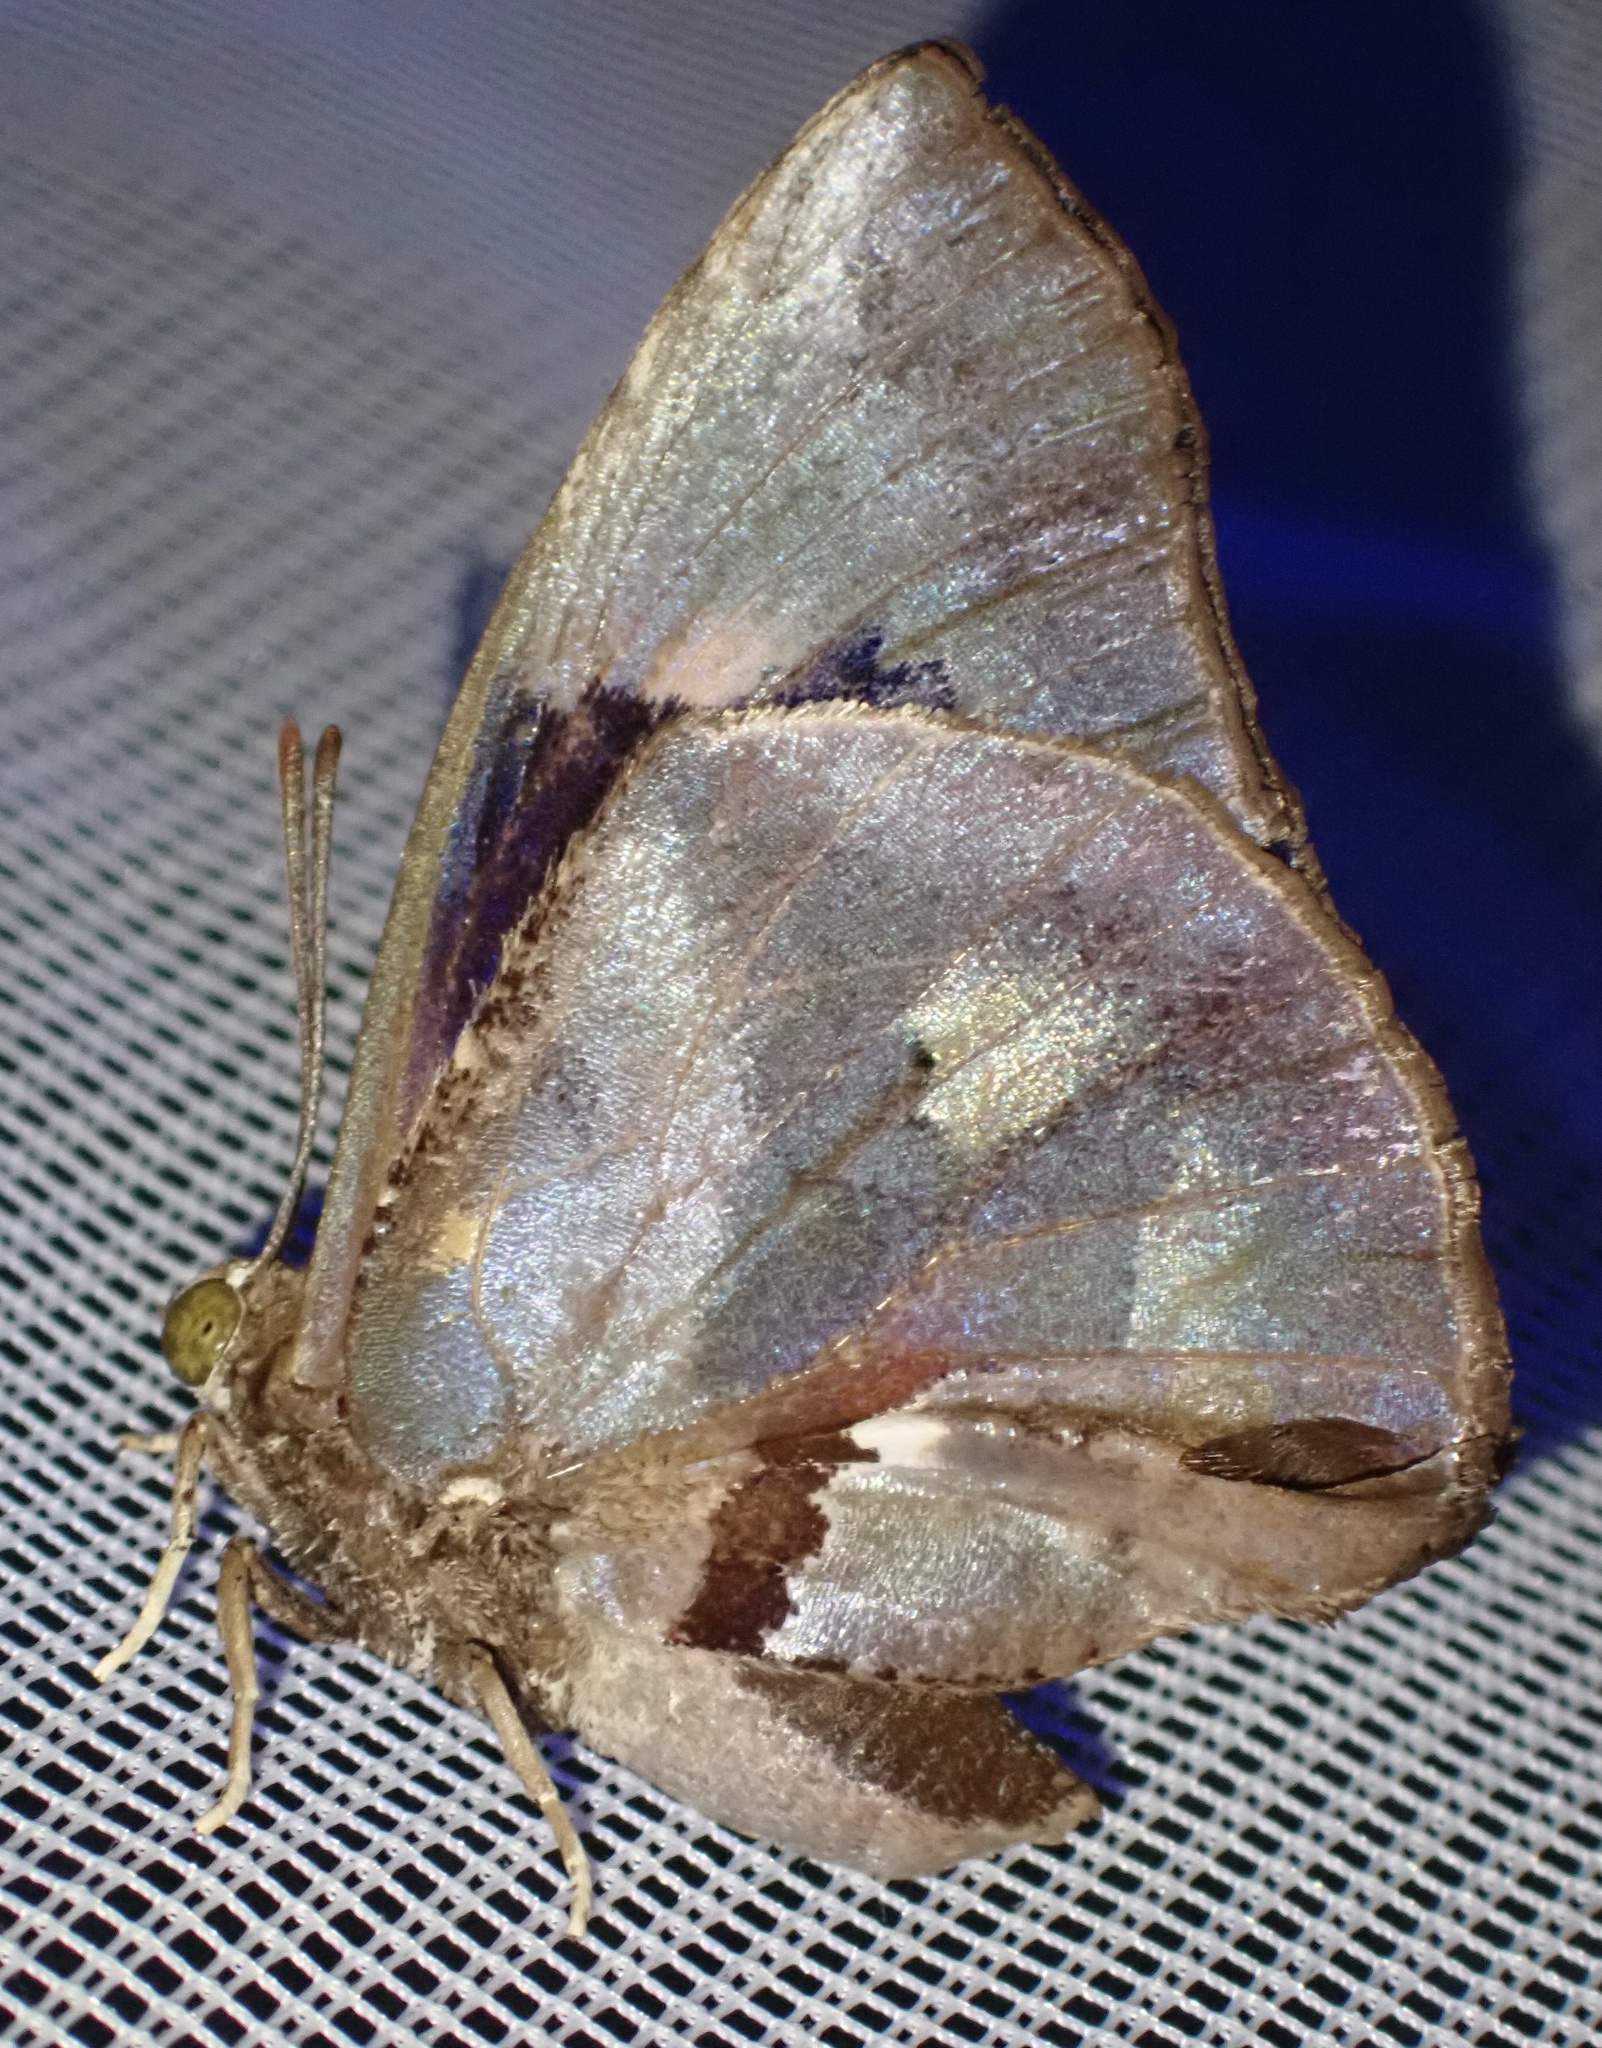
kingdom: Animalia
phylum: Arthropoda
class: Insecta
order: Lepidoptera
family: Lycaenidae
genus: Liphyra
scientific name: Liphyra brassolis
